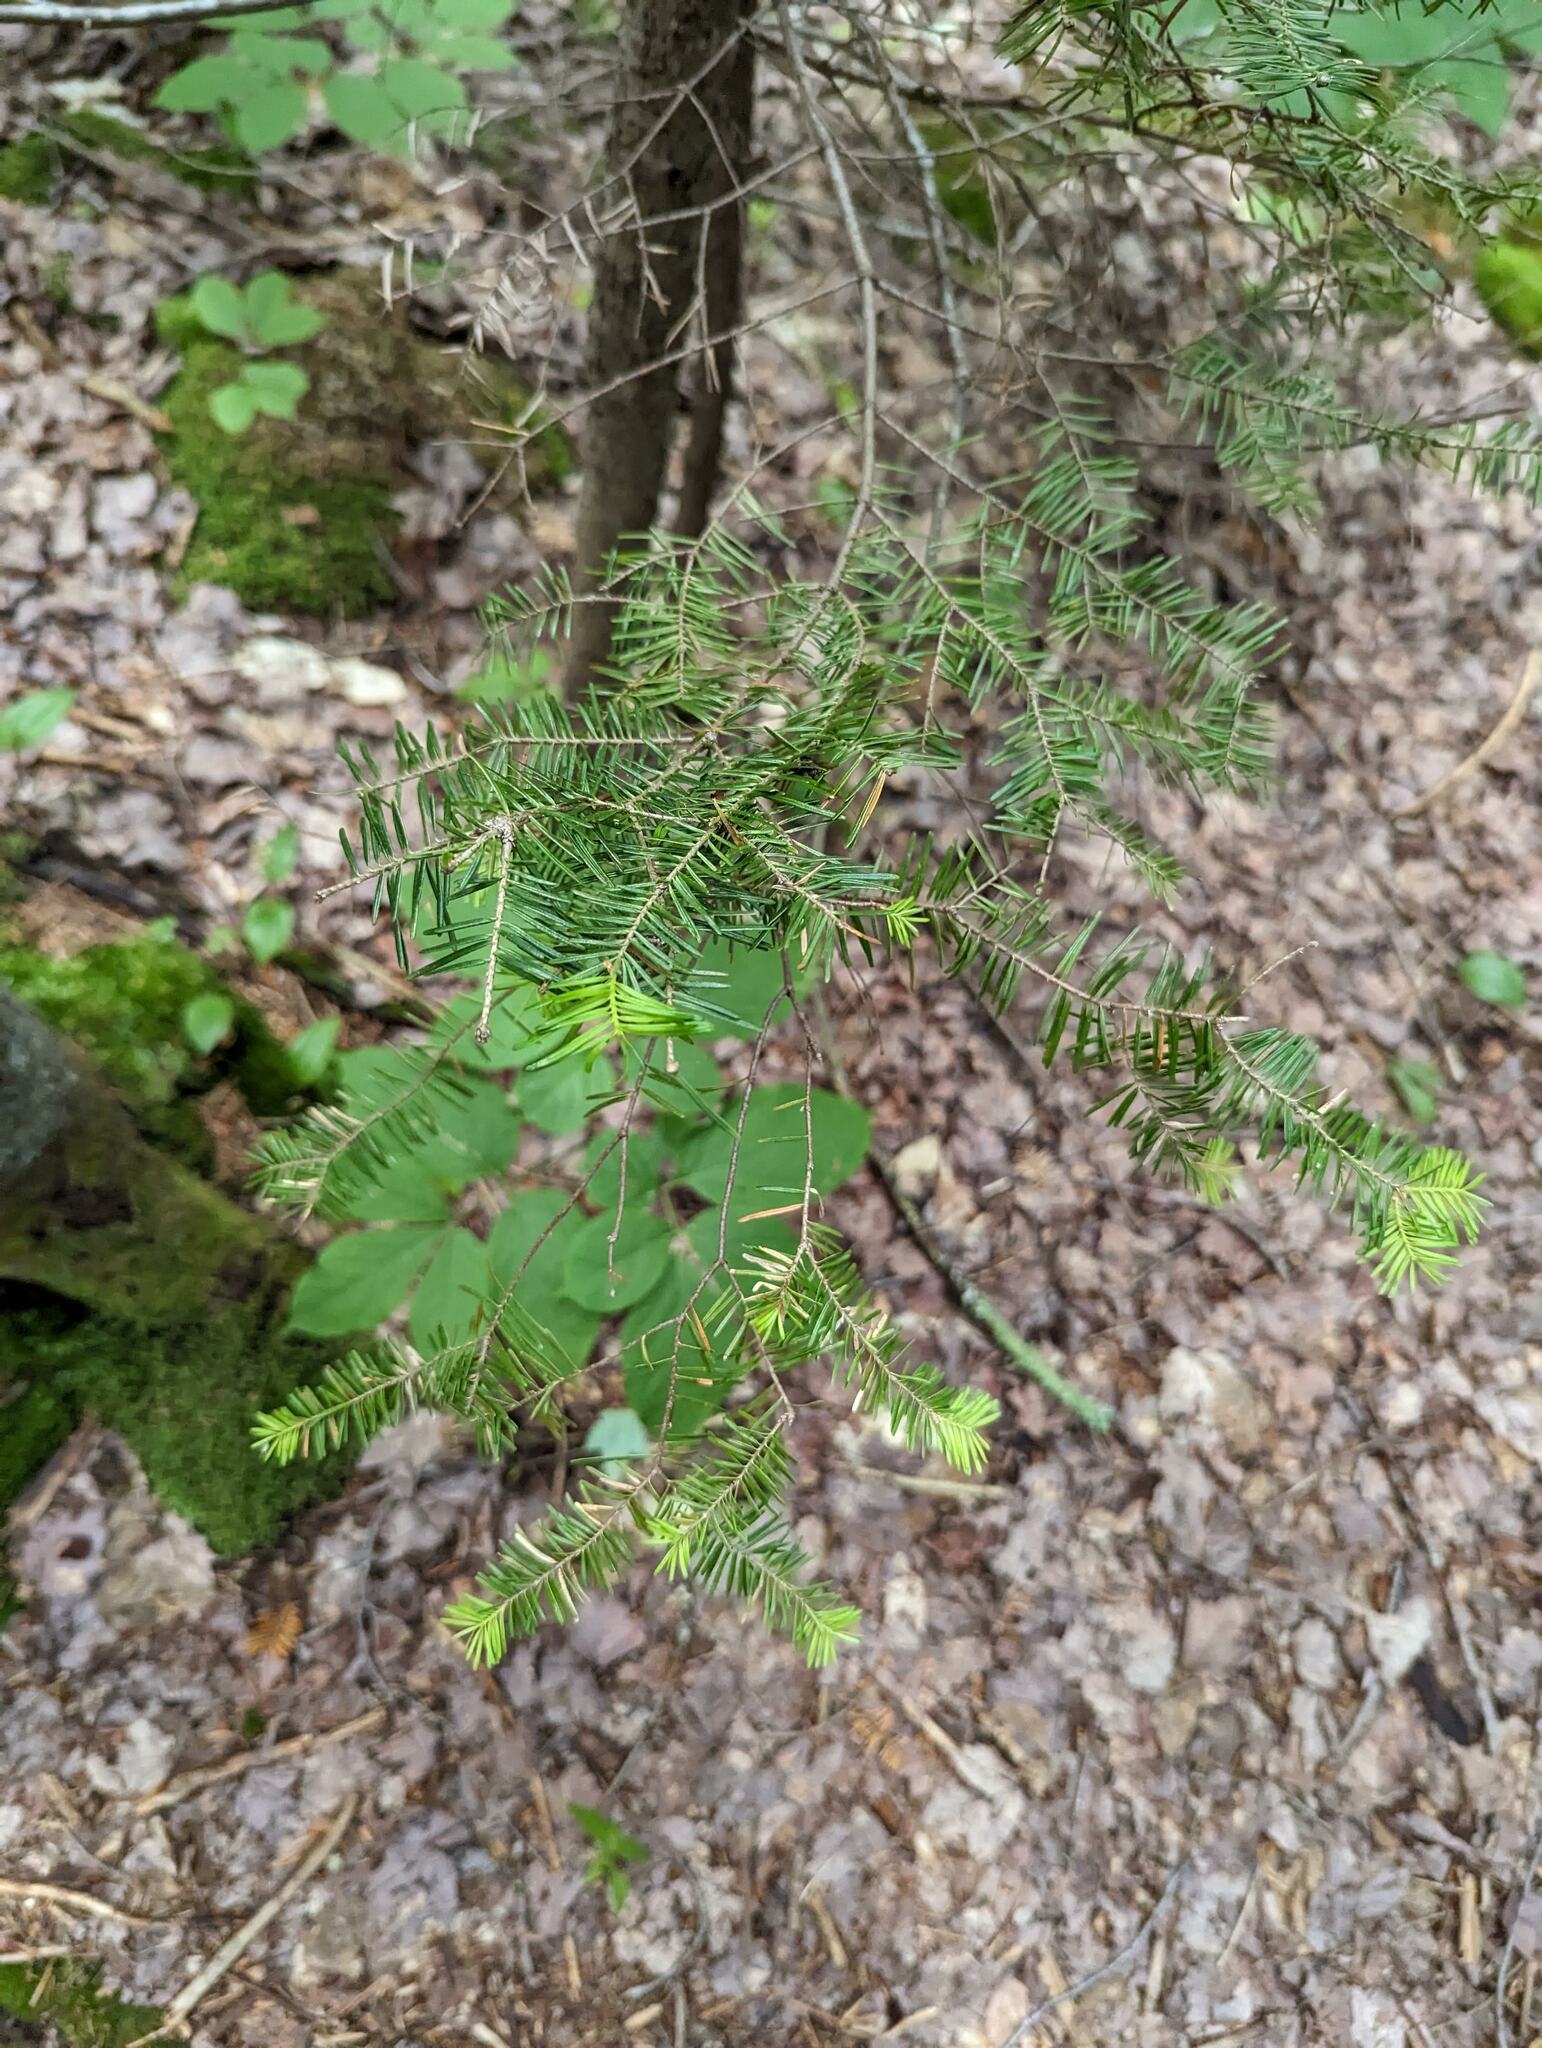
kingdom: Plantae
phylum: Tracheophyta
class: Pinopsida
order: Pinales
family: Pinaceae
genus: Abies
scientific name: Abies balsamea
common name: Balsam fir
